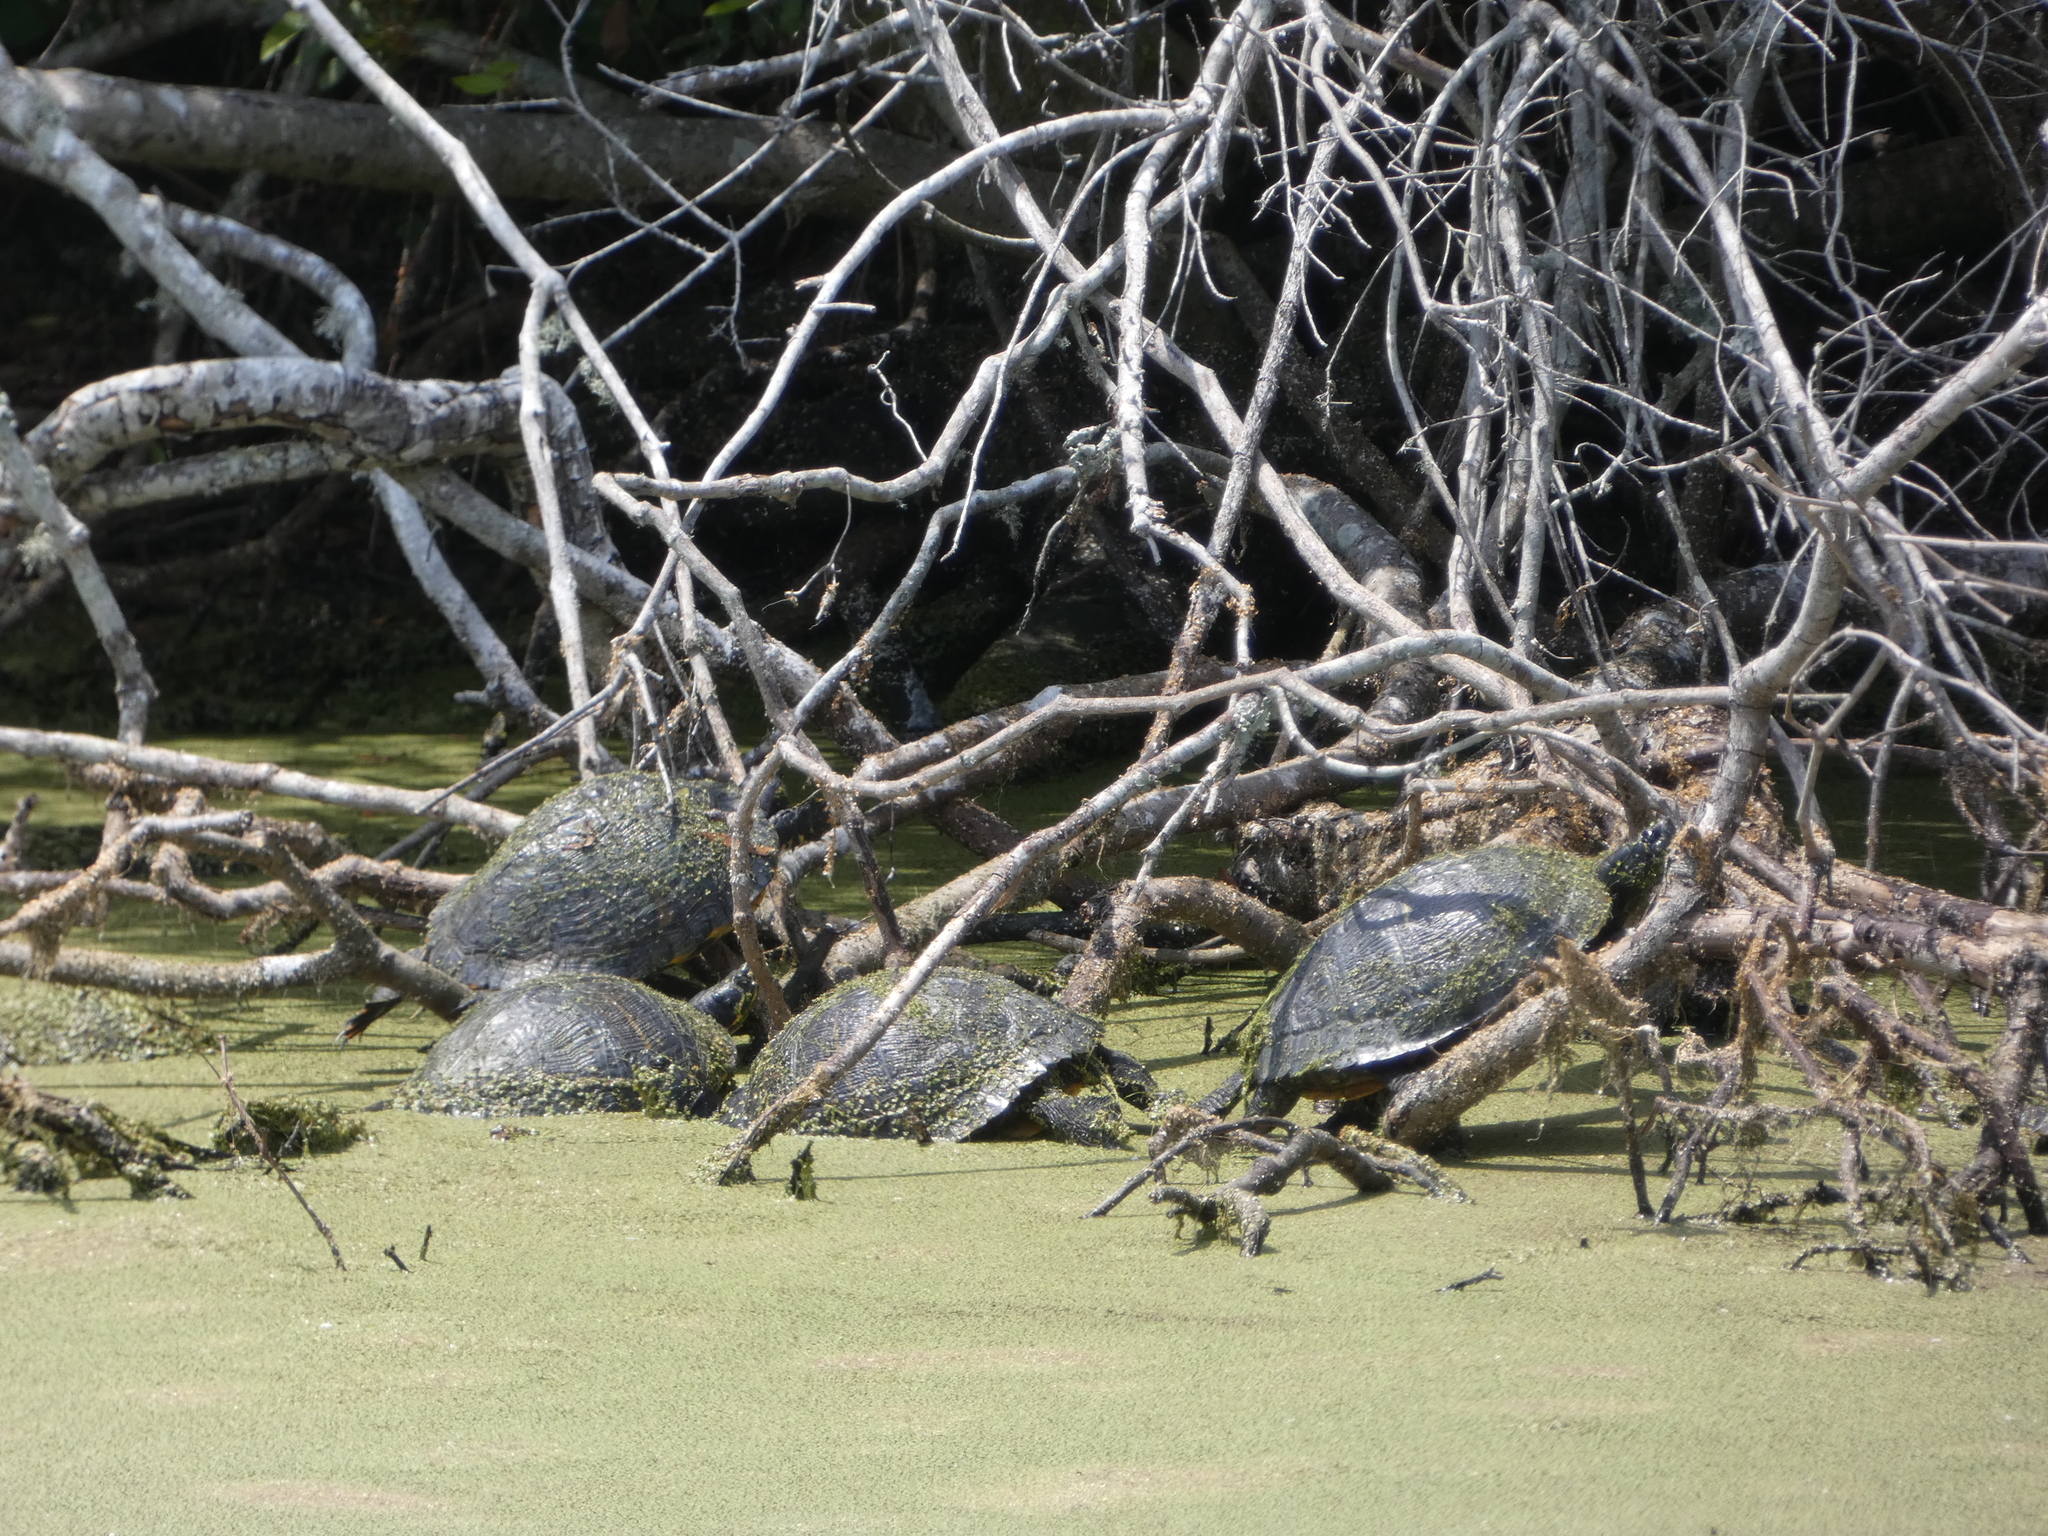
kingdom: Animalia
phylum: Chordata
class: Testudines
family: Emydidae
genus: Trachemys
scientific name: Trachemys scripta
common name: Slider
